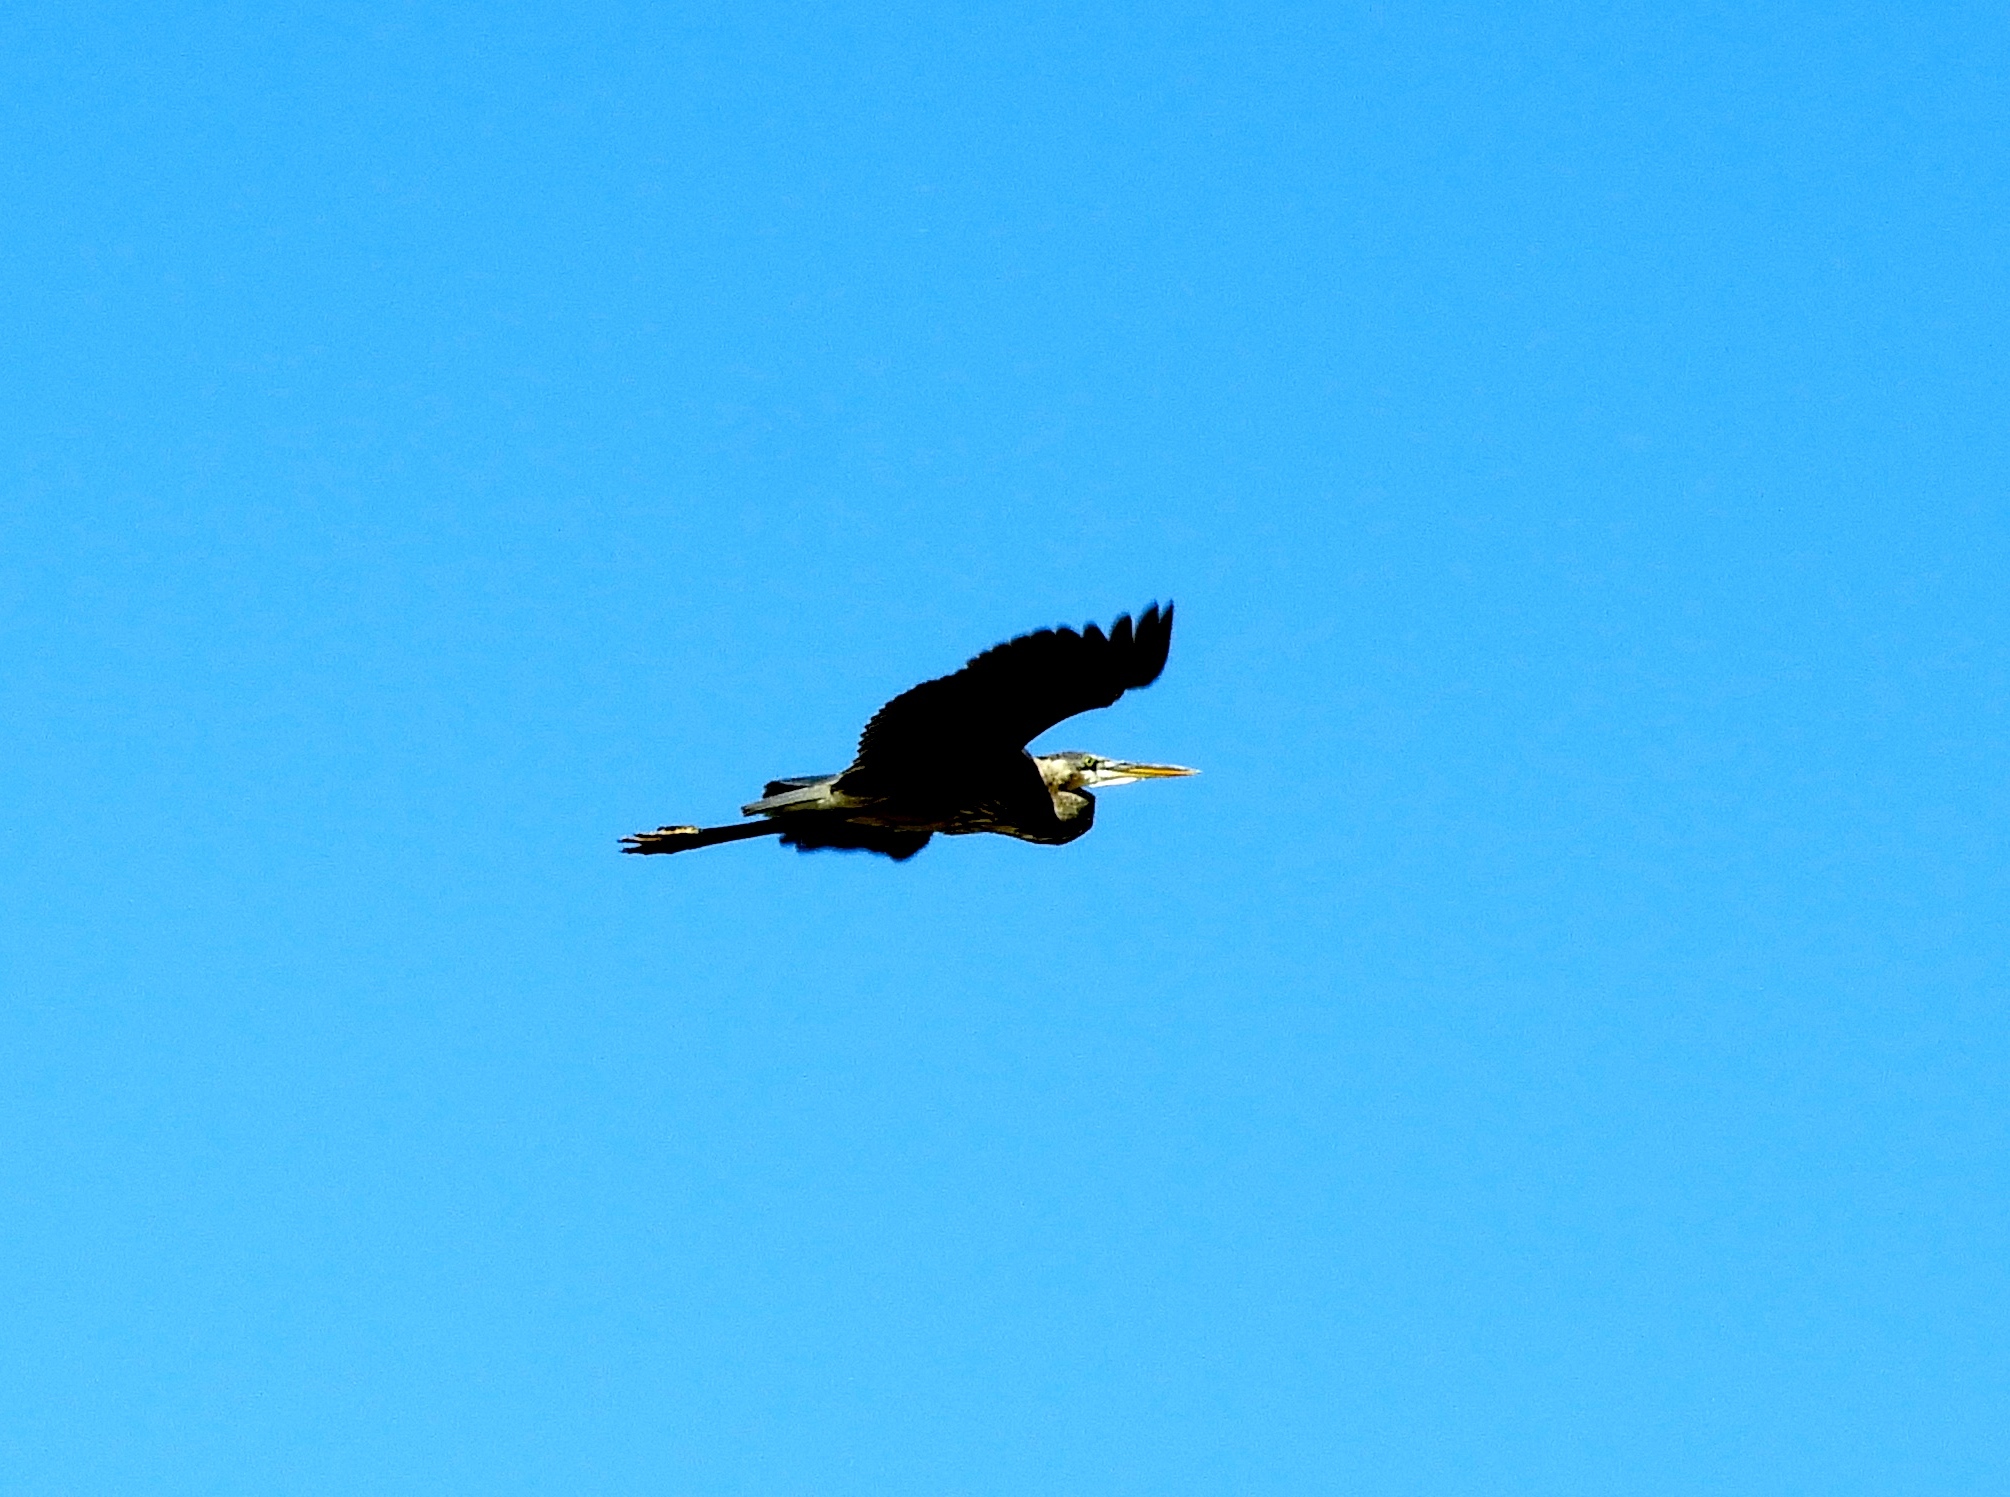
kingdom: Animalia
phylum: Chordata
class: Aves
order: Pelecaniformes
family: Ardeidae
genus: Ardea
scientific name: Ardea herodias
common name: Great blue heron
